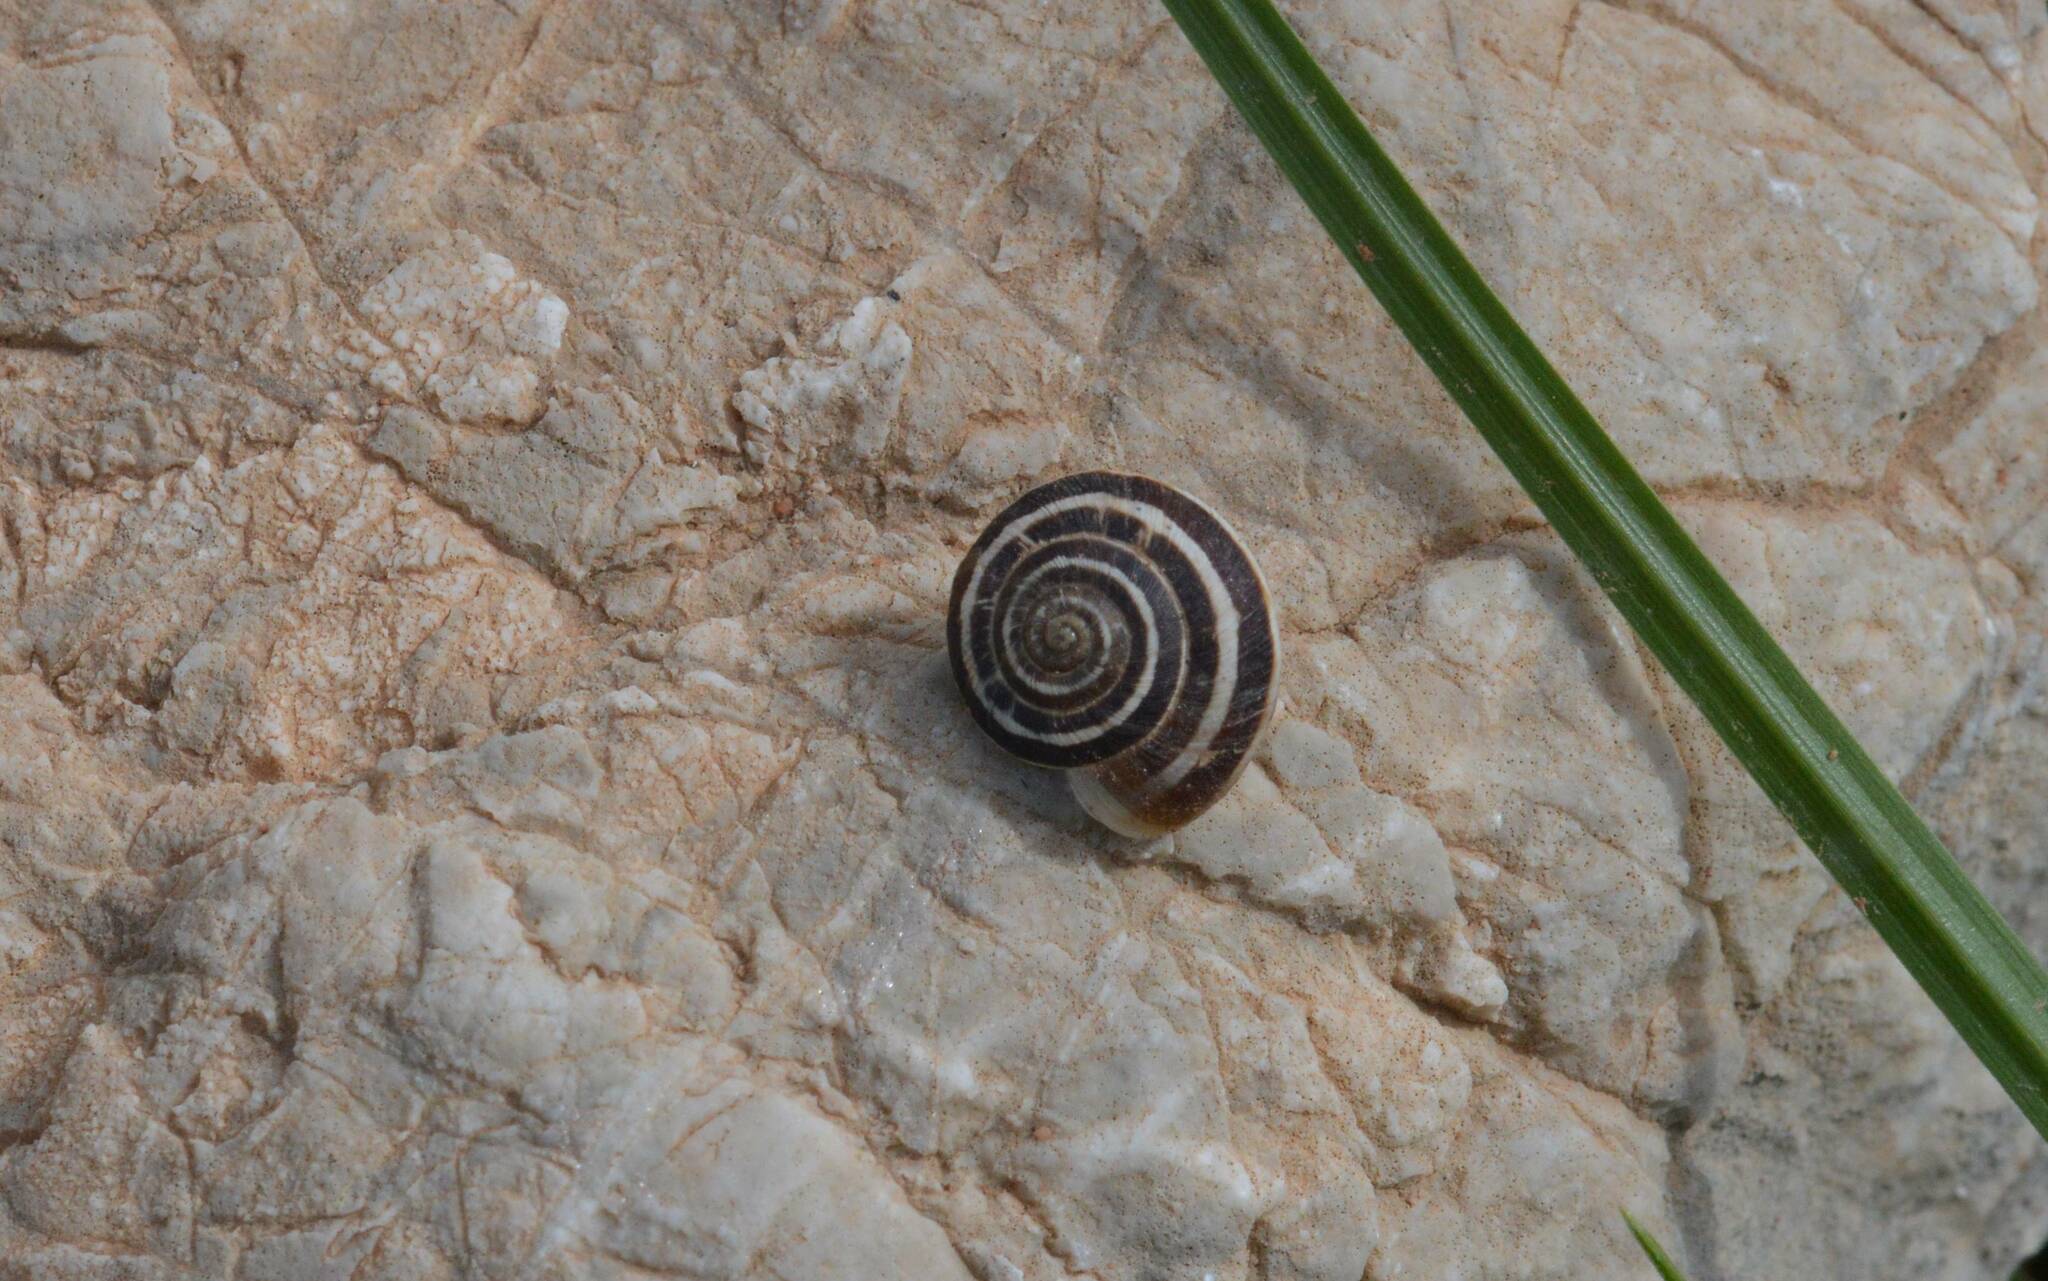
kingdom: Animalia
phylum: Mollusca
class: Gastropoda
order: Stylommatophora
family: Helicidae
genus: Eobania
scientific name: Eobania vermiculata
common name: Chocolateband snail
